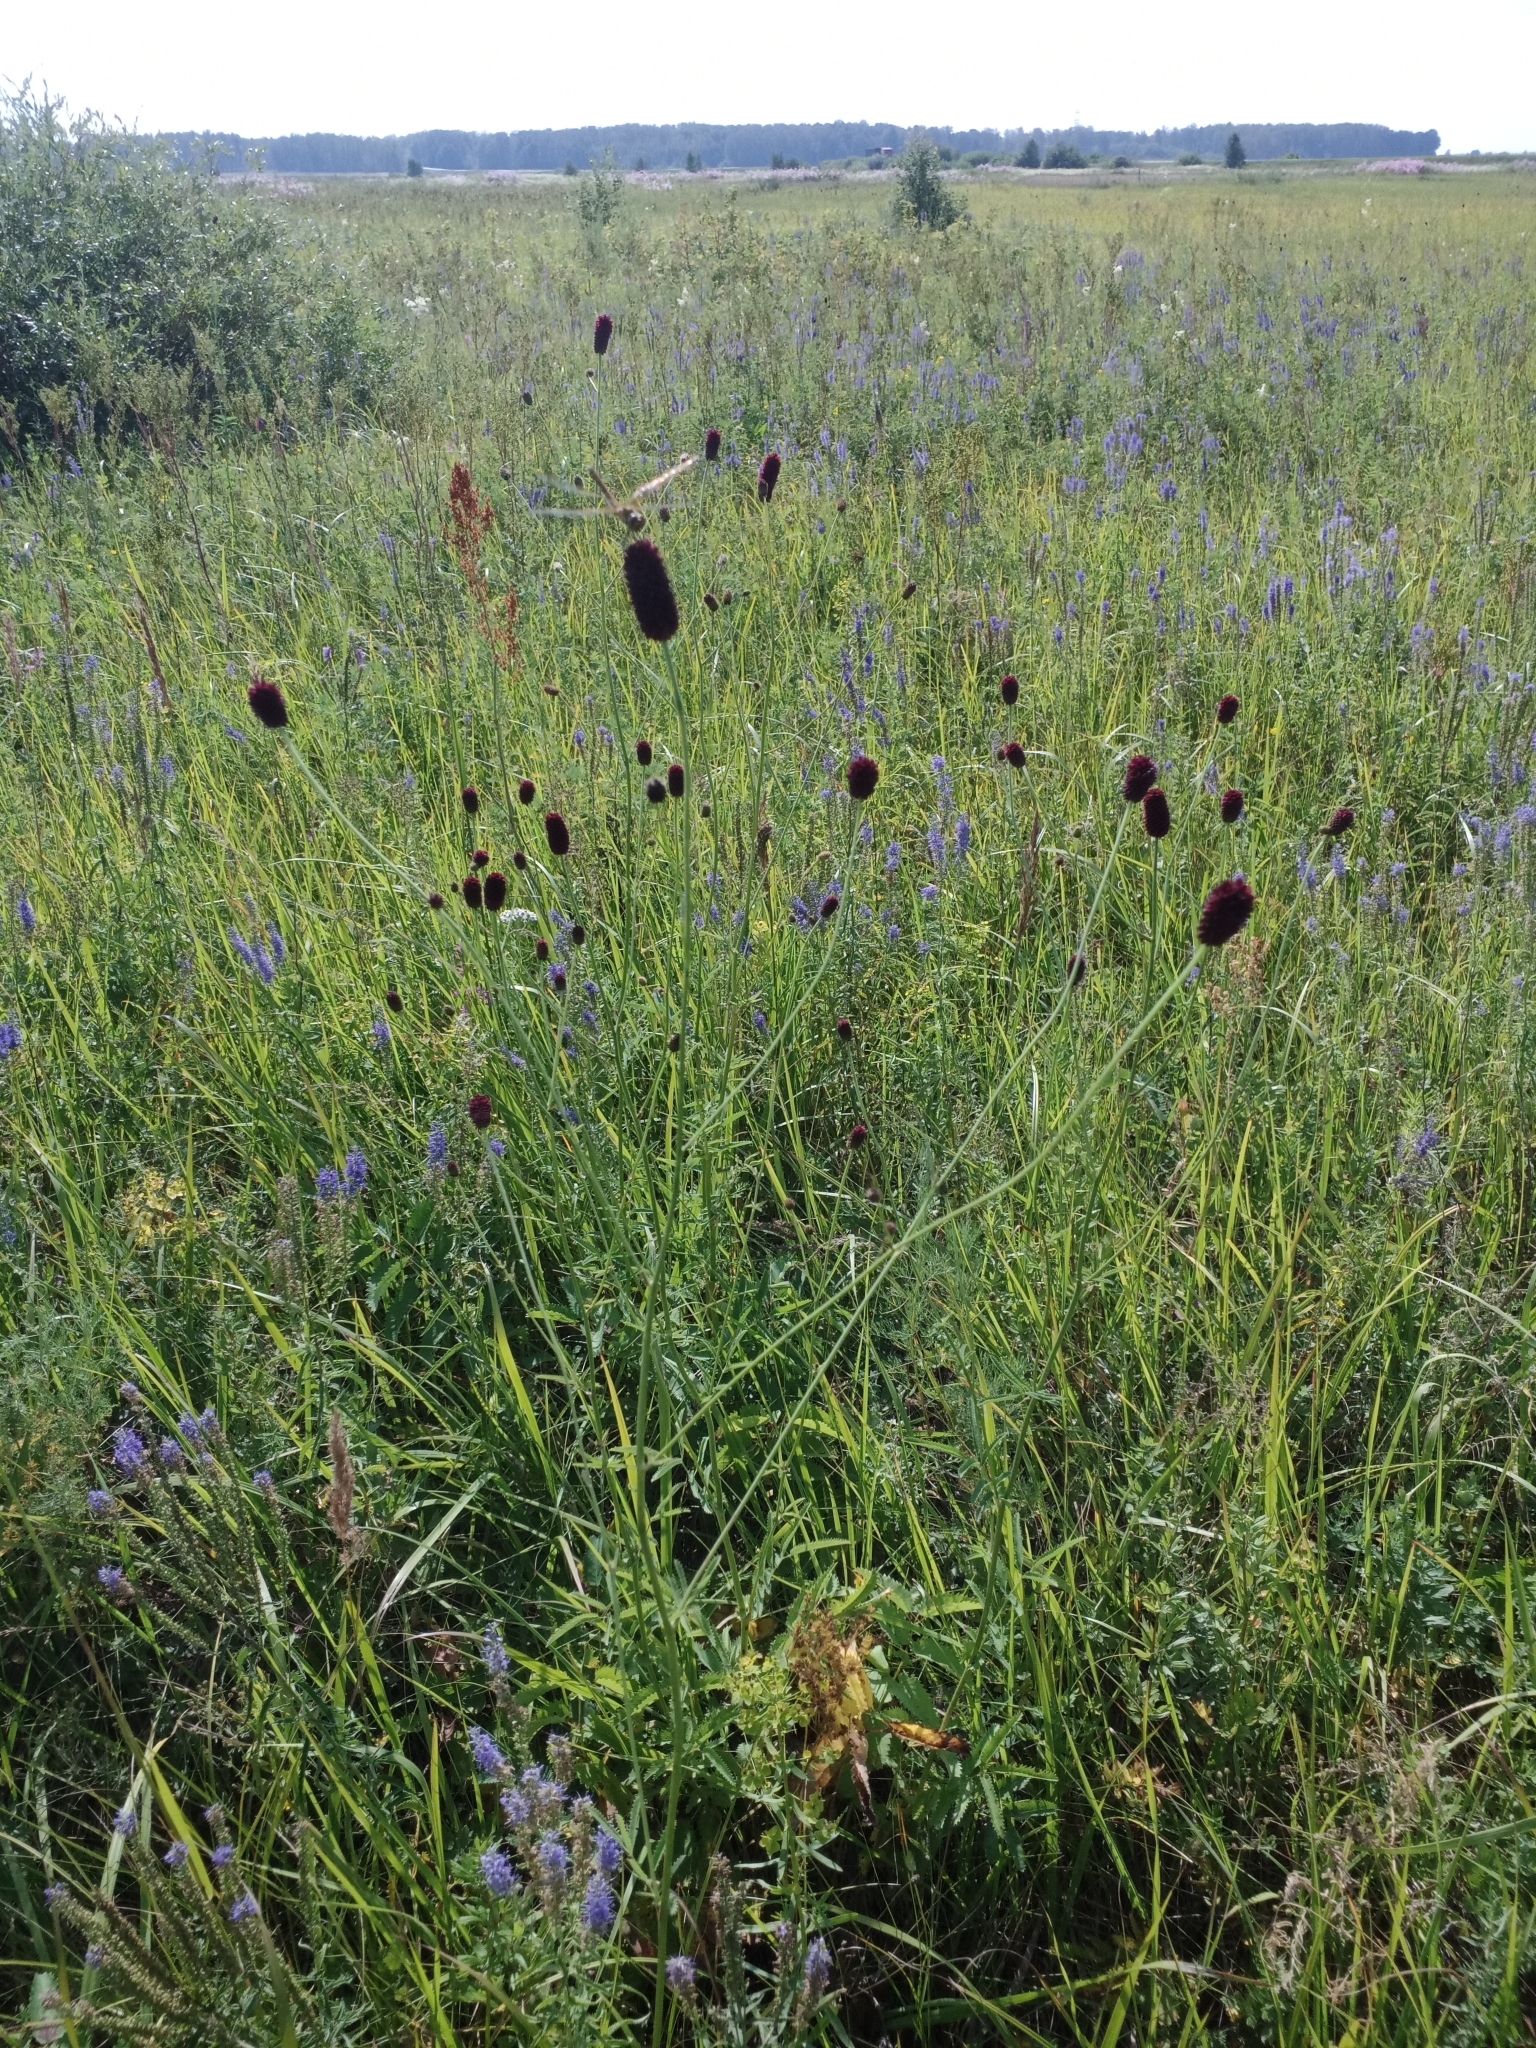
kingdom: Plantae
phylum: Tracheophyta
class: Magnoliopsida
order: Rosales
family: Rosaceae
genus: Sanguisorba
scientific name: Sanguisorba officinalis
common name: Great burnet
